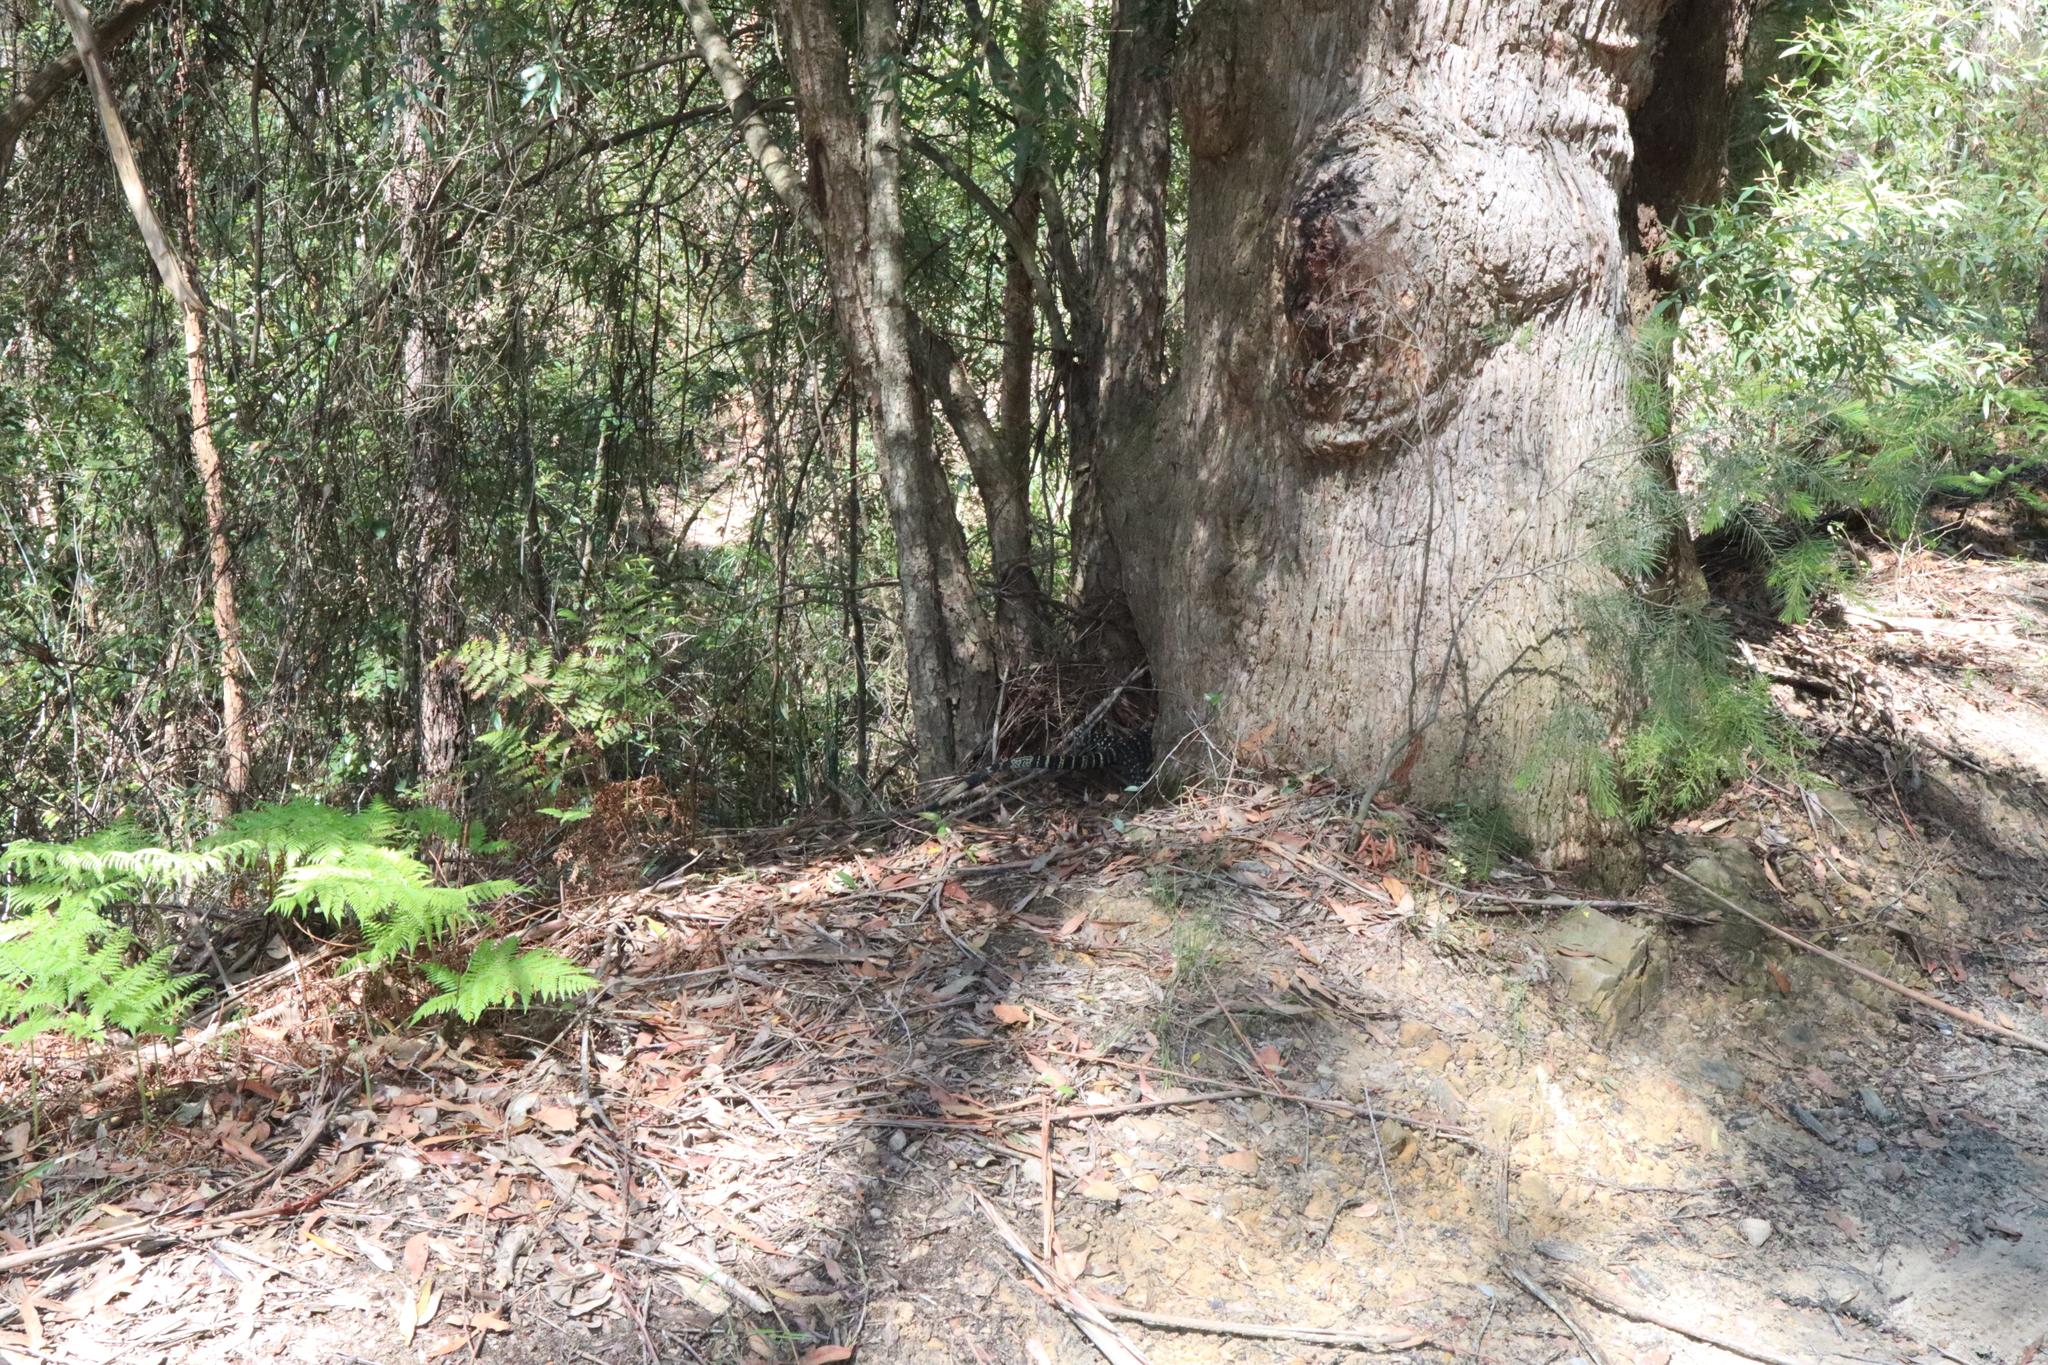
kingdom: Animalia
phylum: Chordata
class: Squamata
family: Varanidae
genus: Varanus
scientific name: Varanus varius
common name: Lace monitor
